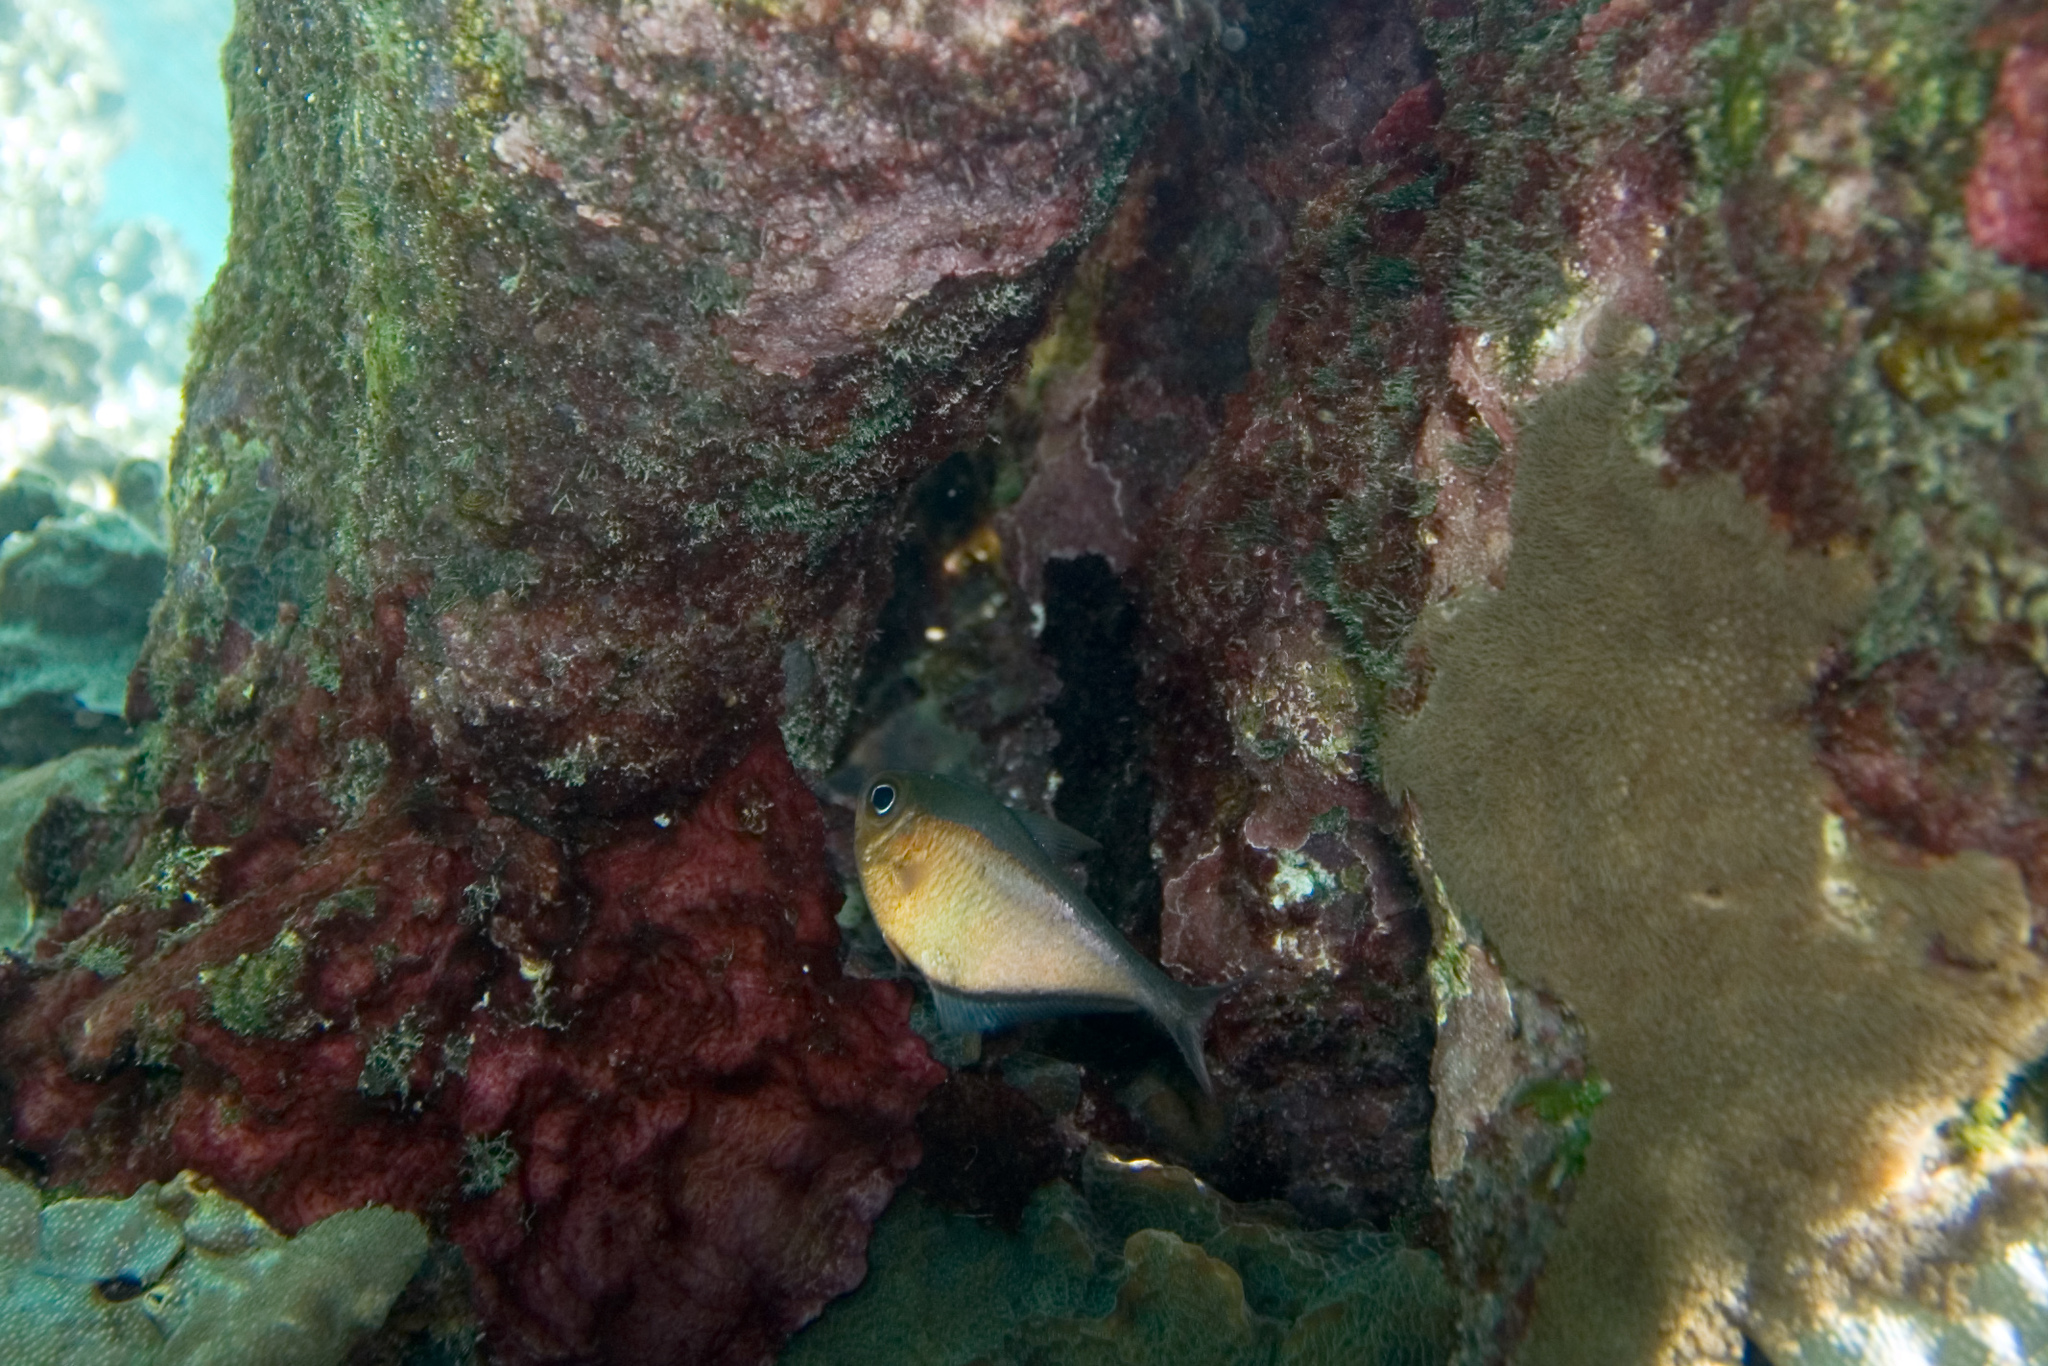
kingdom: Animalia
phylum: Chordata
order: Perciformes
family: Pempheridae
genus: Pempheris
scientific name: Pempheris schomburgkii
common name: Glassy sweeper
